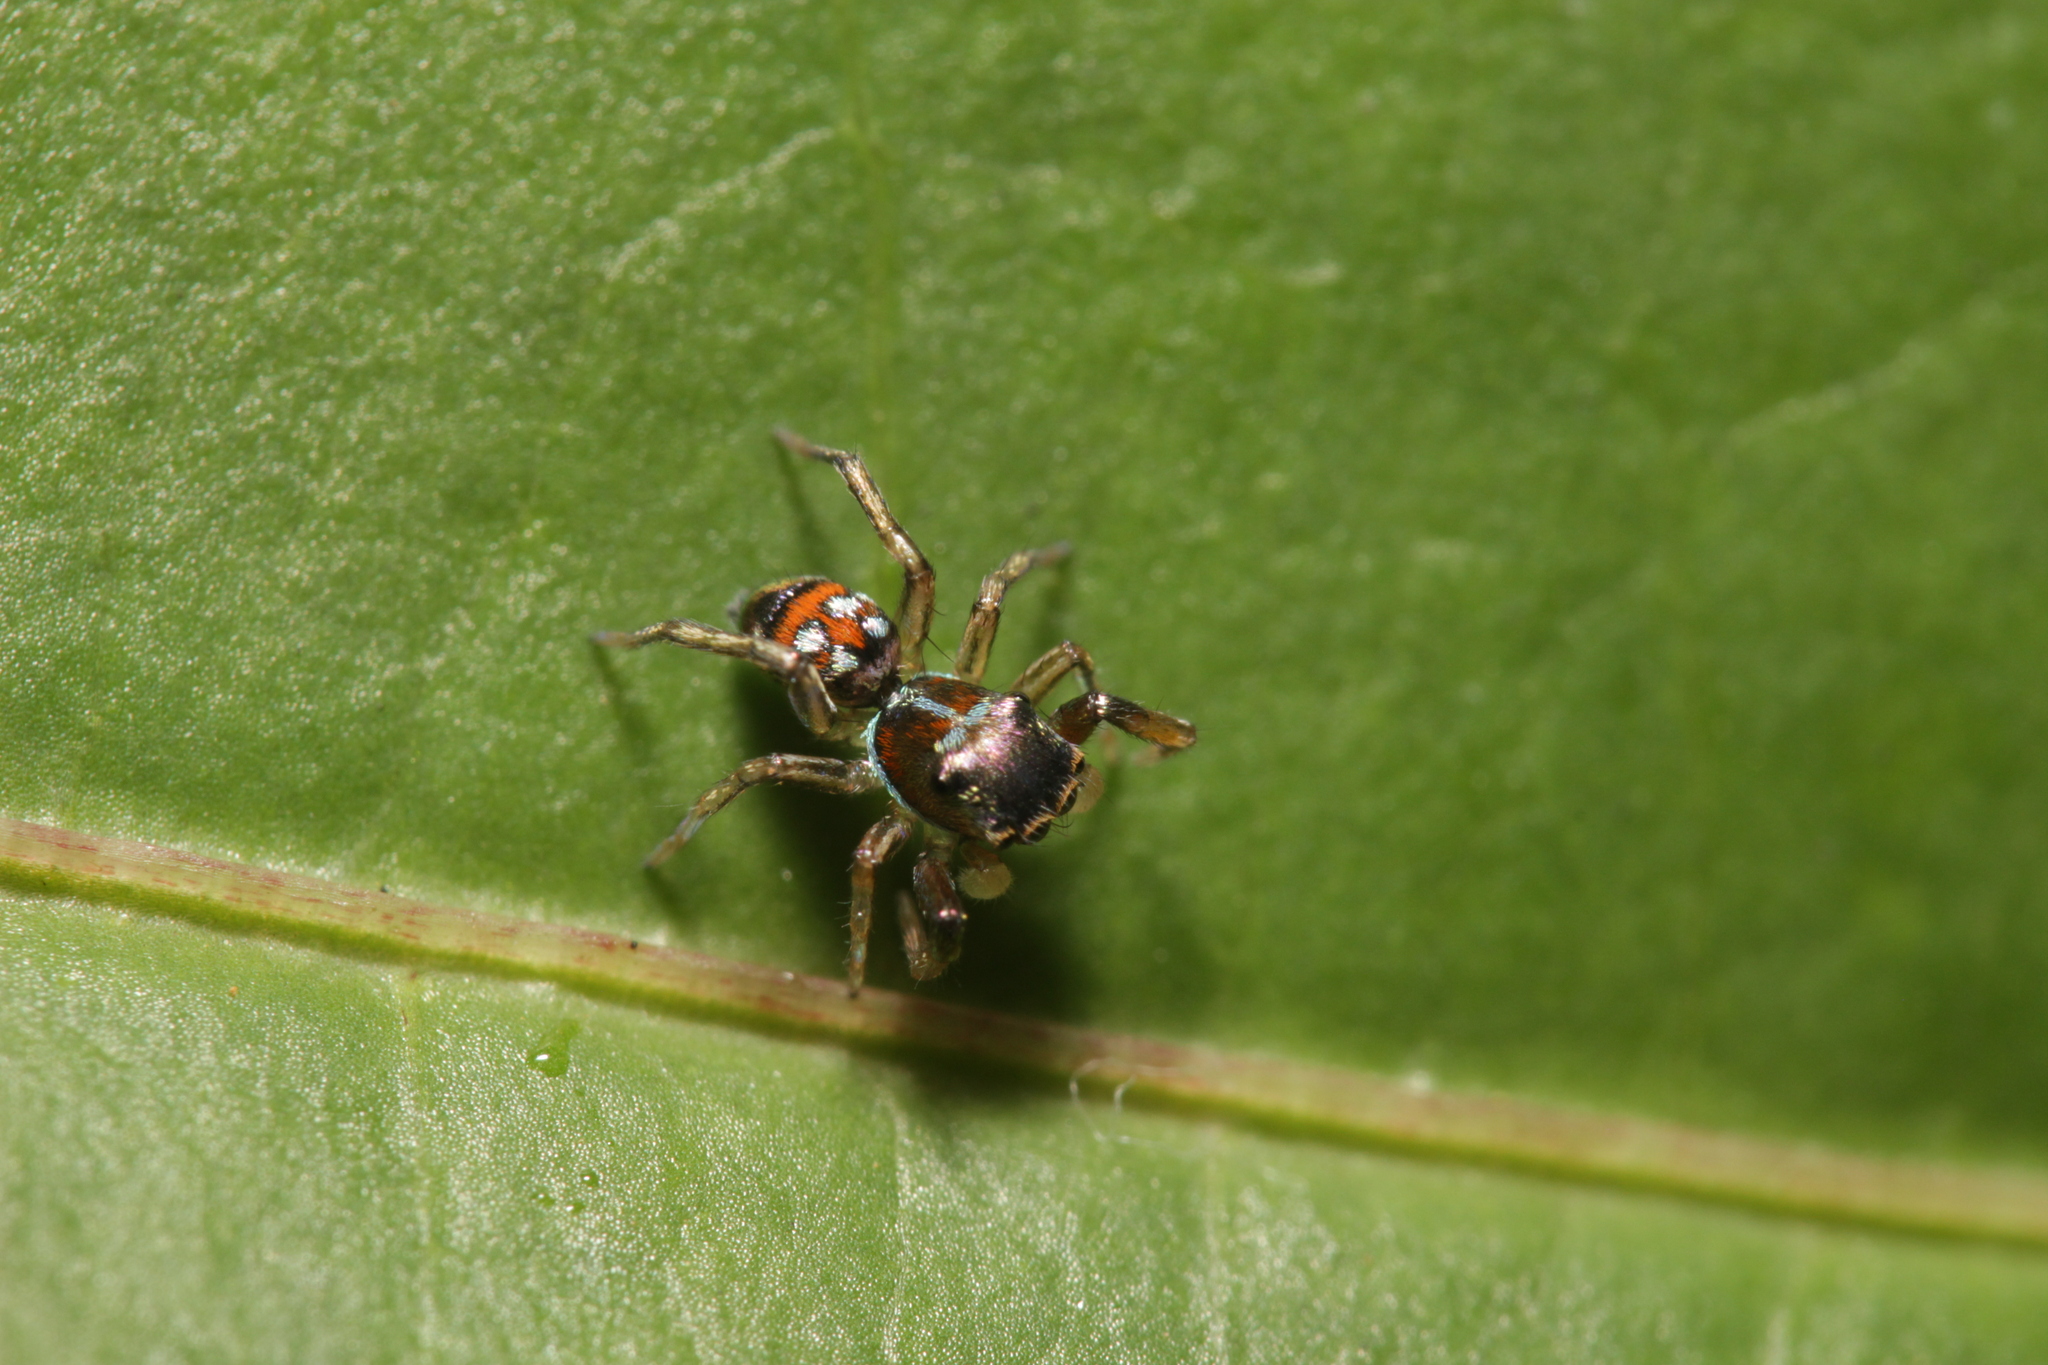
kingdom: Animalia
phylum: Arthropoda
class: Arachnida
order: Araneae
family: Salticidae
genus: Siler
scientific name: Siler semiglaucus
